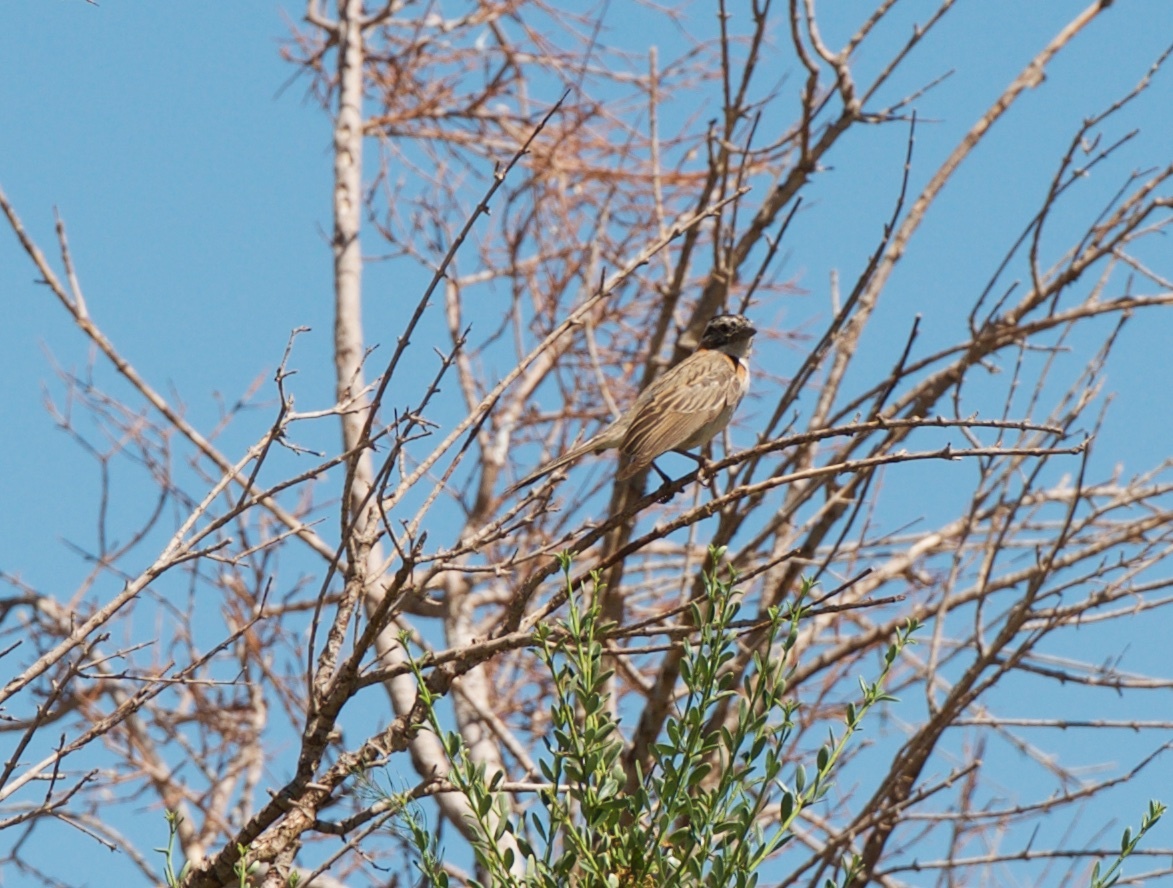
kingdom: Animalia
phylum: Chordata
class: Aves
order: Passeriformes
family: Passerellidae
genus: Zonotrichia
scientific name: Zonotrichia capensis
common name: Rufous-collared sparrow
